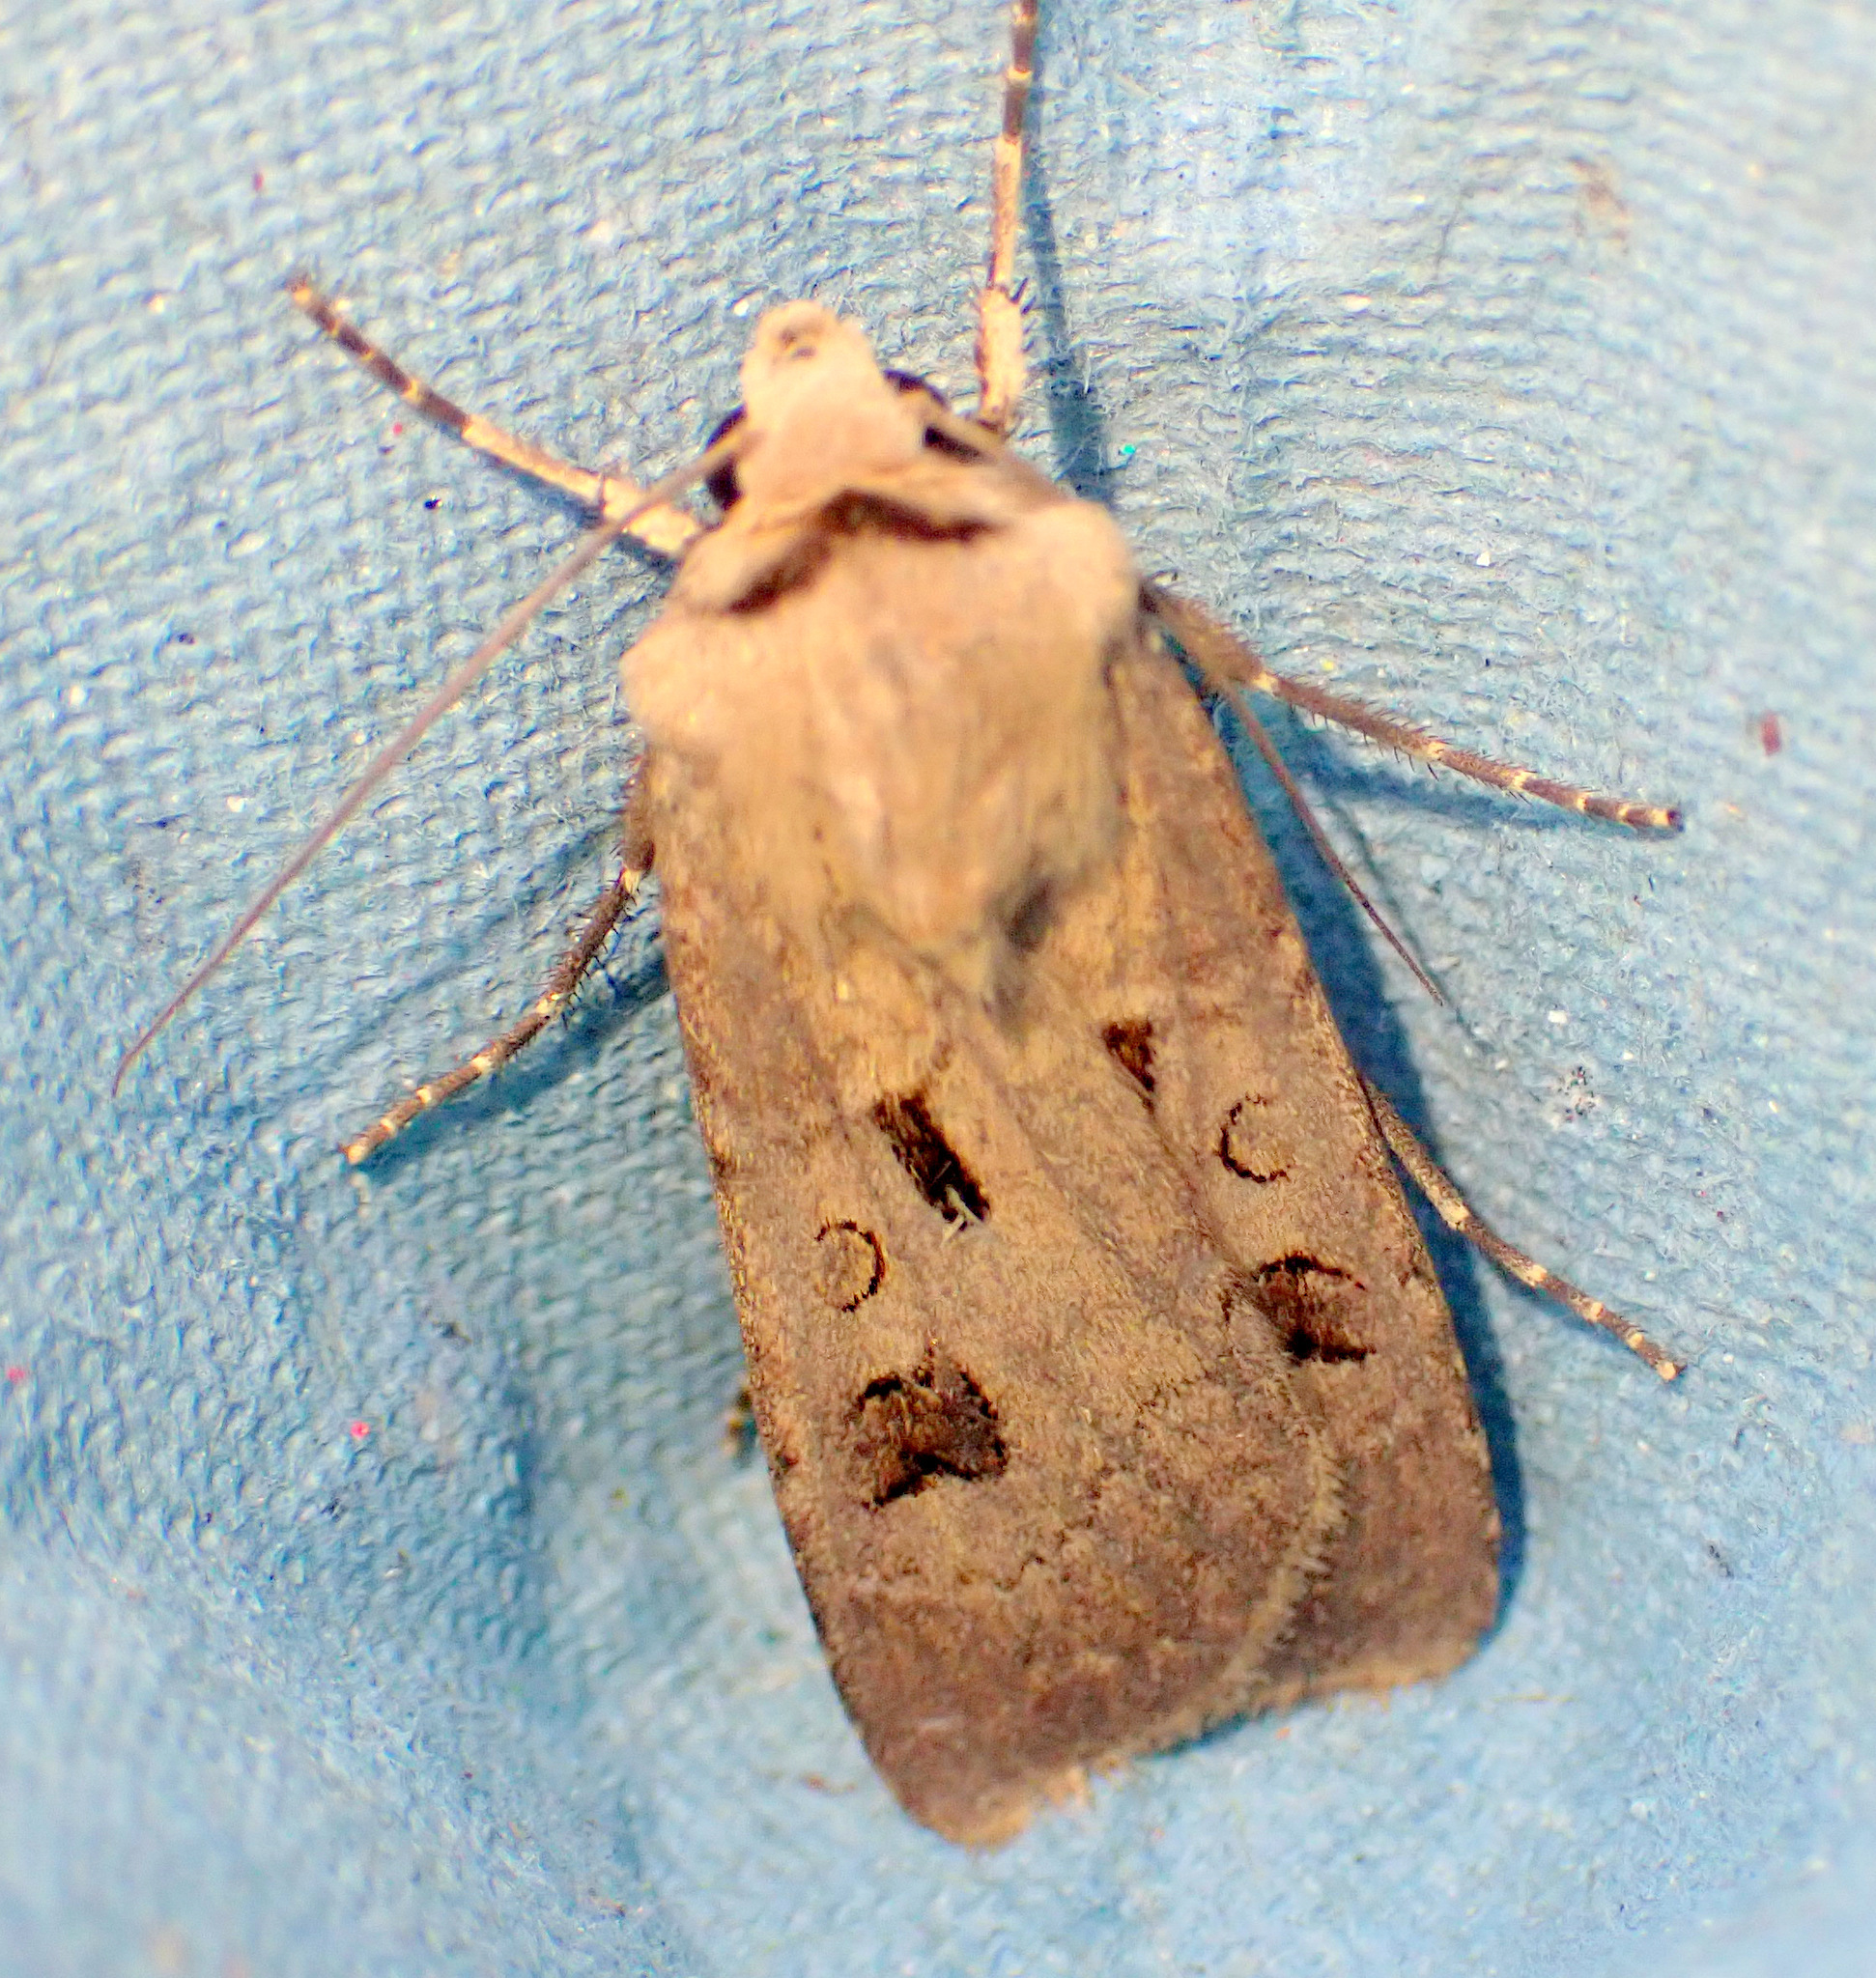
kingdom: Animalia
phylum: Arthropoda
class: Insecta
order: Lepidoptera
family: Noctuidae
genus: Agrotis
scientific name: Agrotis exclamationis
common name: Heart and dart
